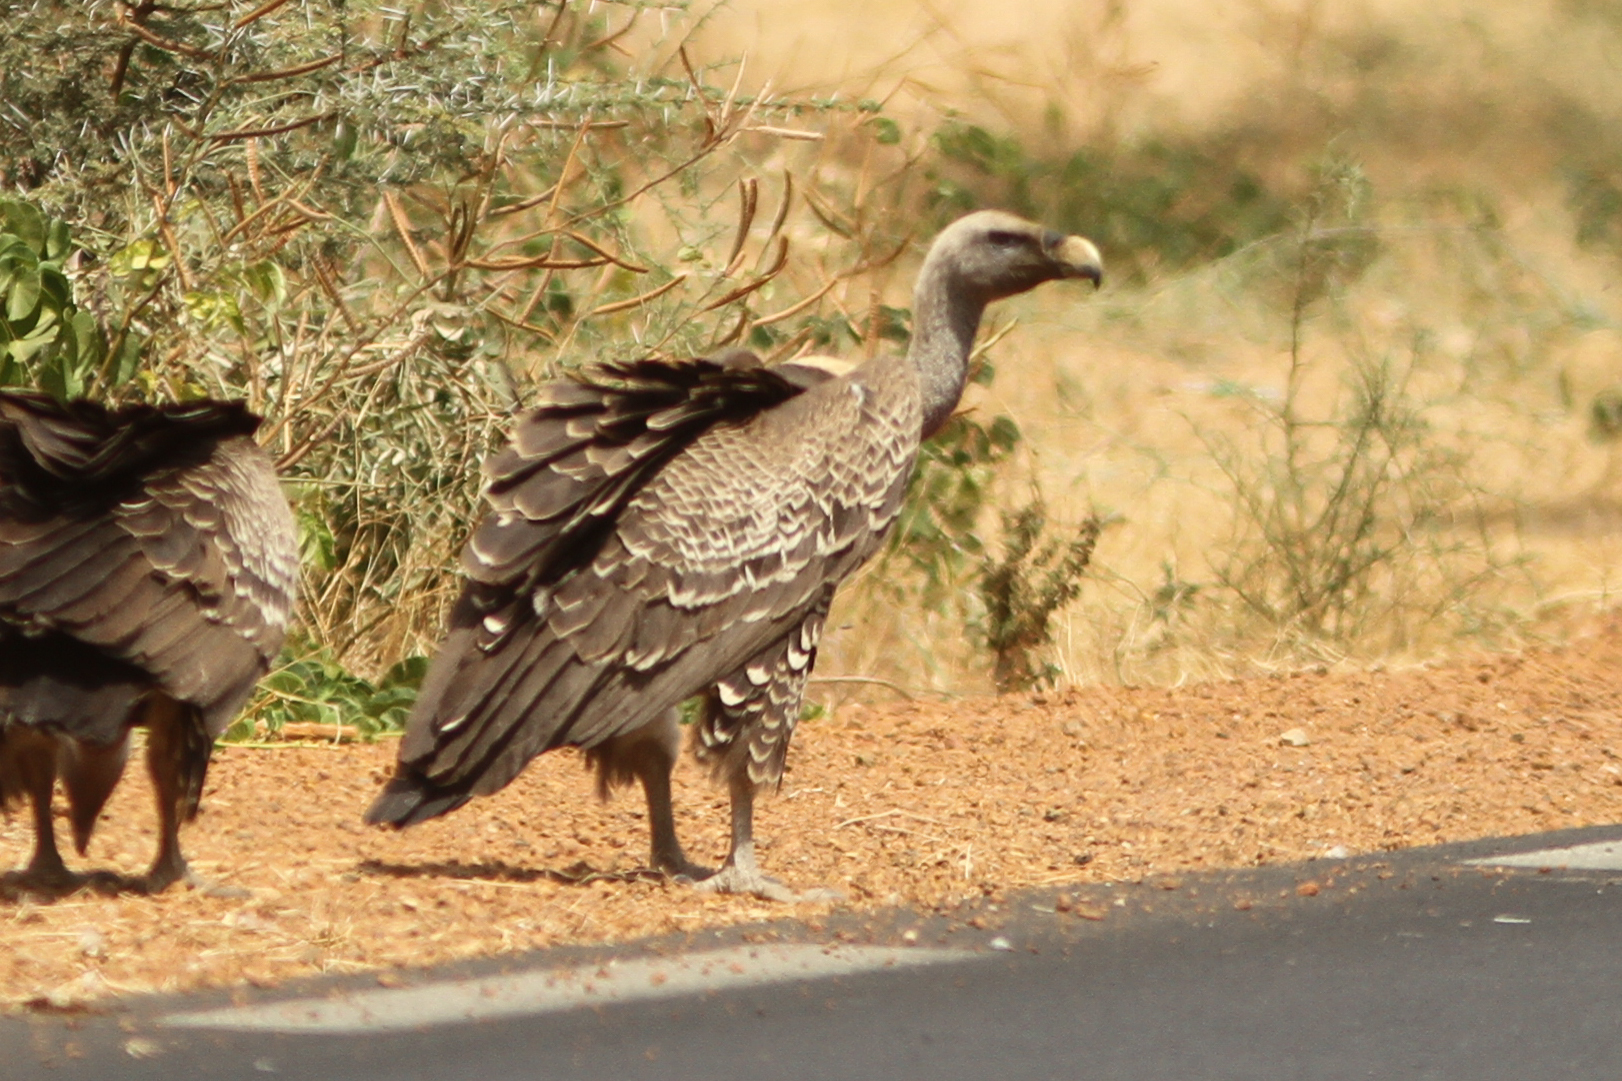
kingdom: Animalia
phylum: Chordata
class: Aves
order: Accipitriformes
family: Accipitridae
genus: Gyps
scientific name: Gyps rueppellii
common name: Rüppell's vulture
